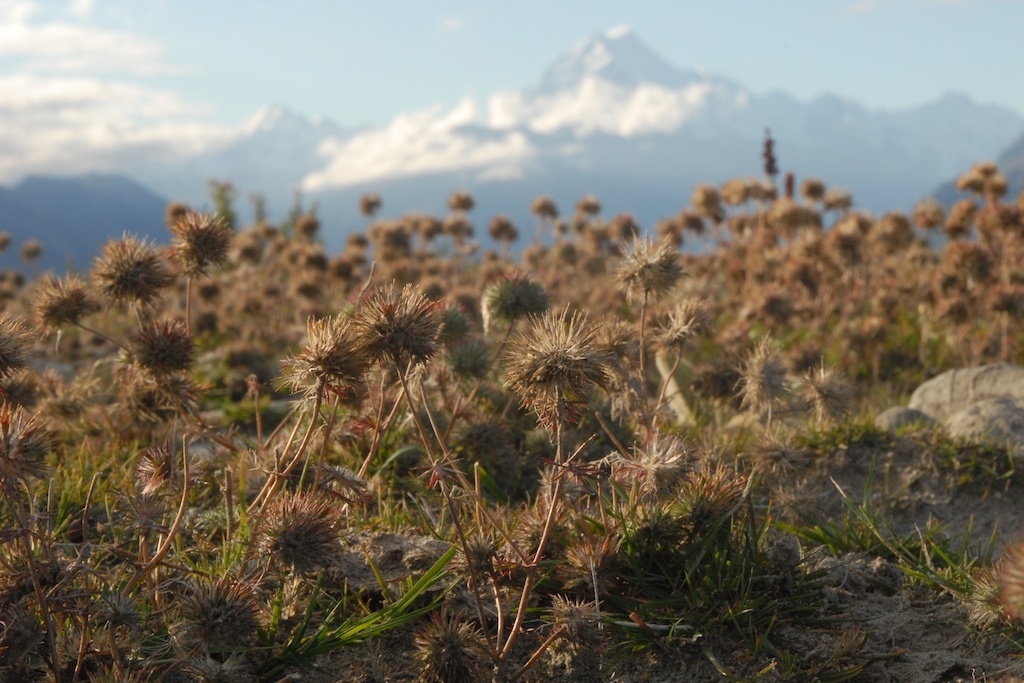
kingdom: Plantae
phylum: Tracheophyta
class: Magnoliopsida
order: Ericales
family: Polemoniaceae
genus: Navarretia
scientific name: Navarretia squarrosa
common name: Skunkweed
